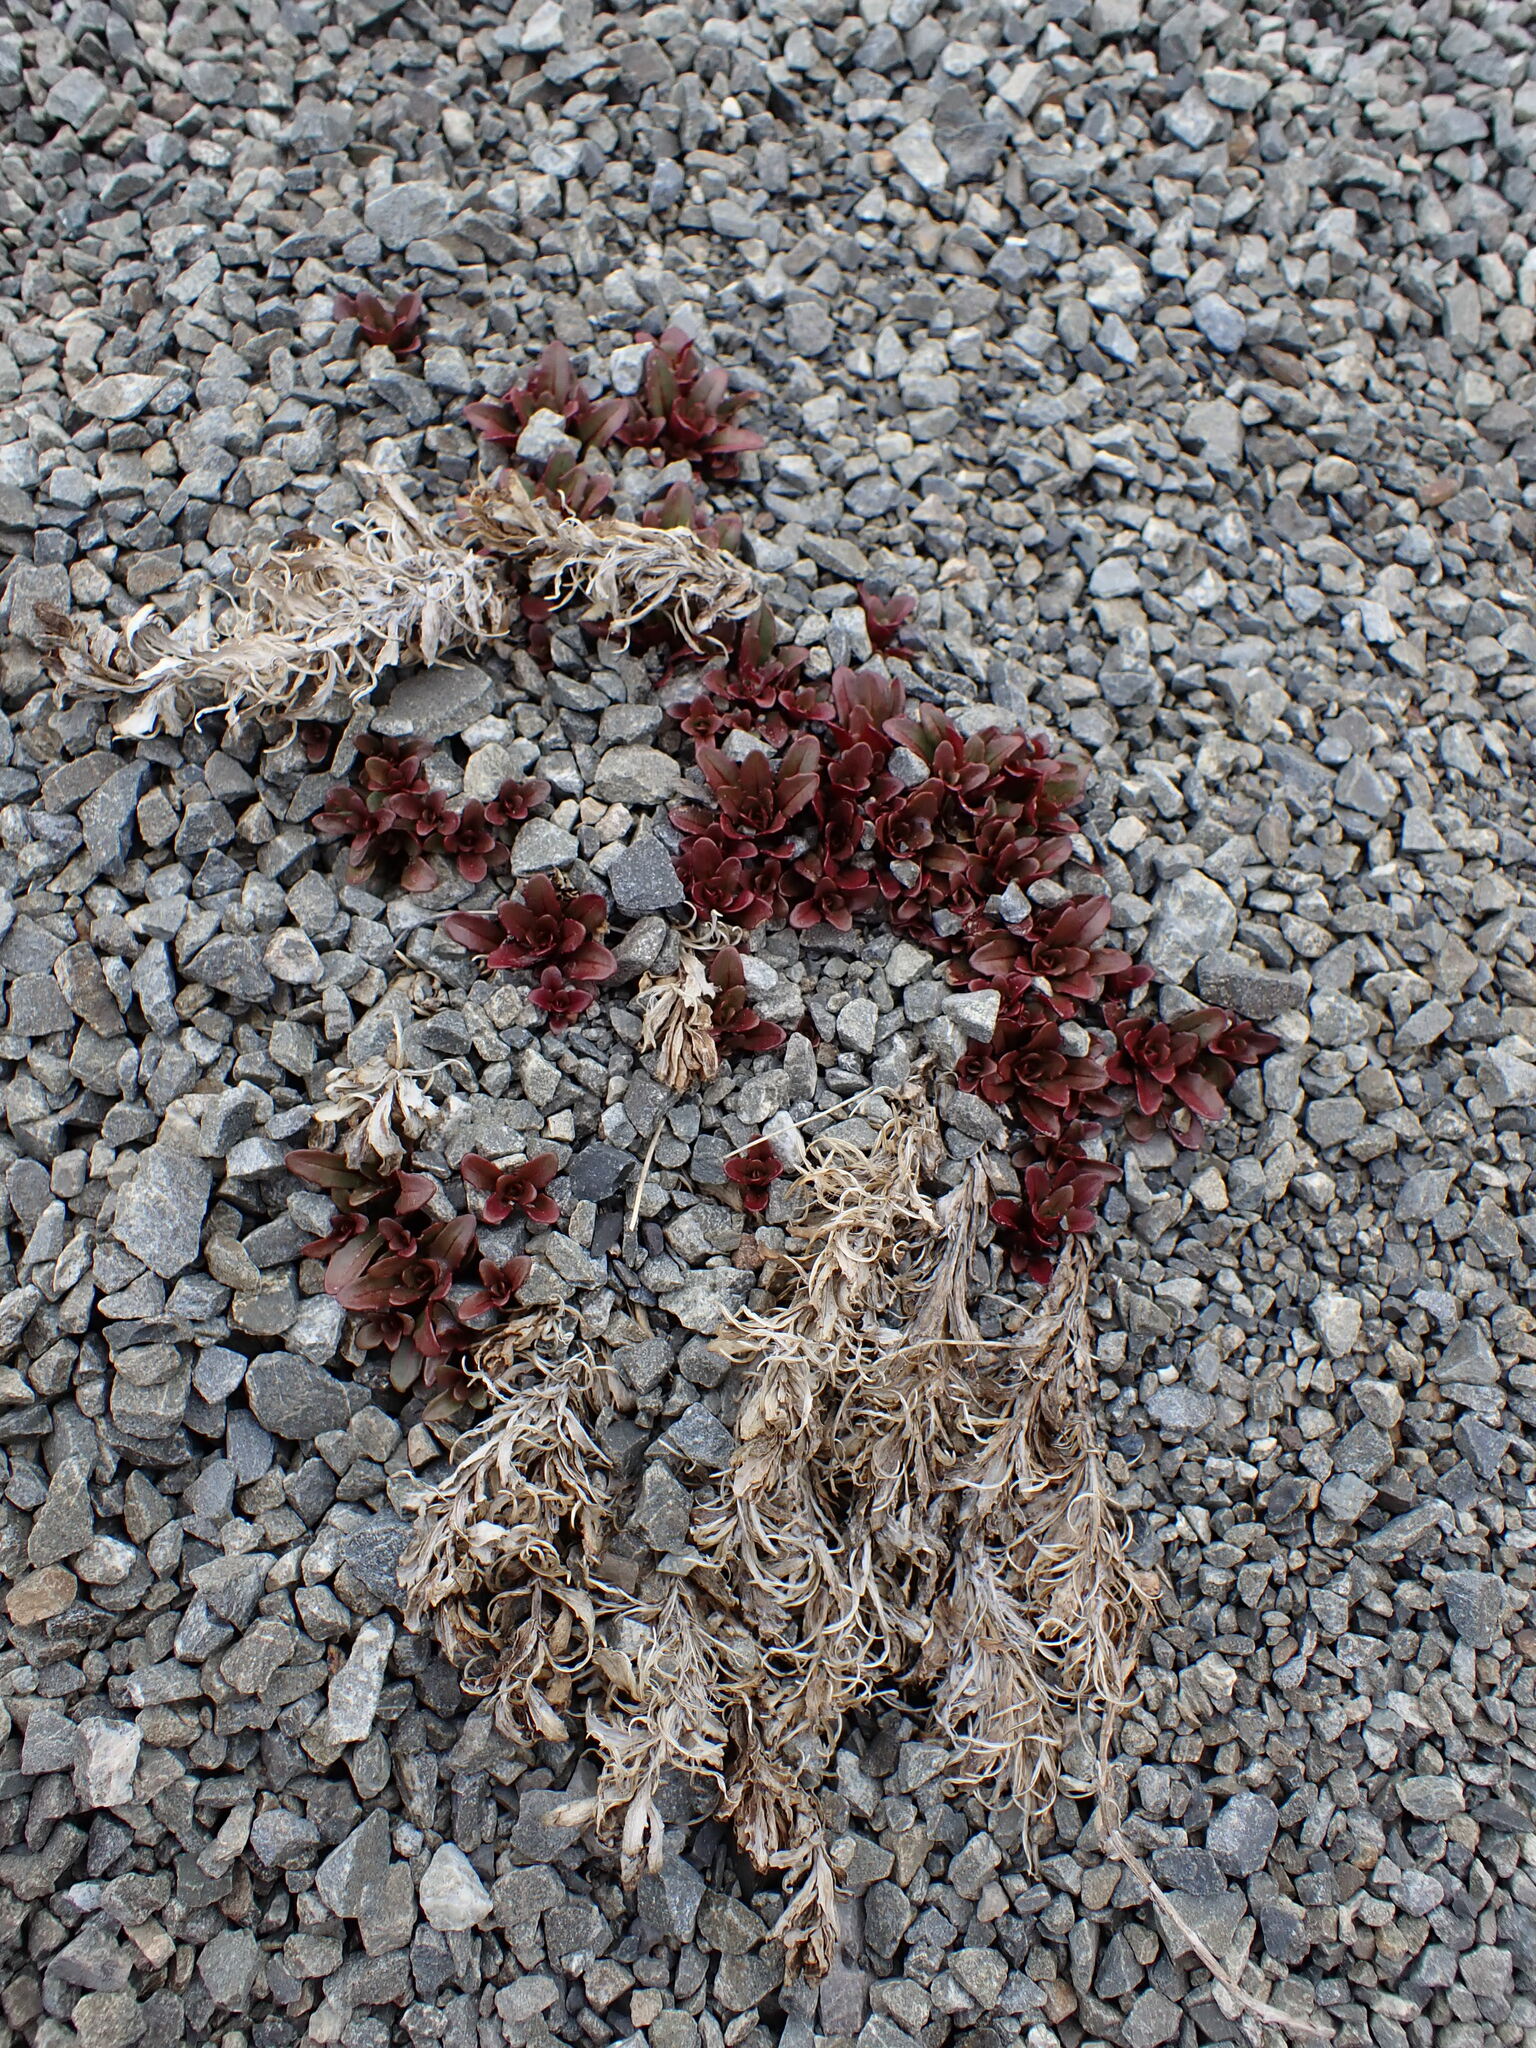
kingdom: Plantae
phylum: Tracheophyta
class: Magnoliopsida
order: Myrtales
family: Onagraceae
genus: Epilobium
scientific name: Epilobium pycnostachyum
